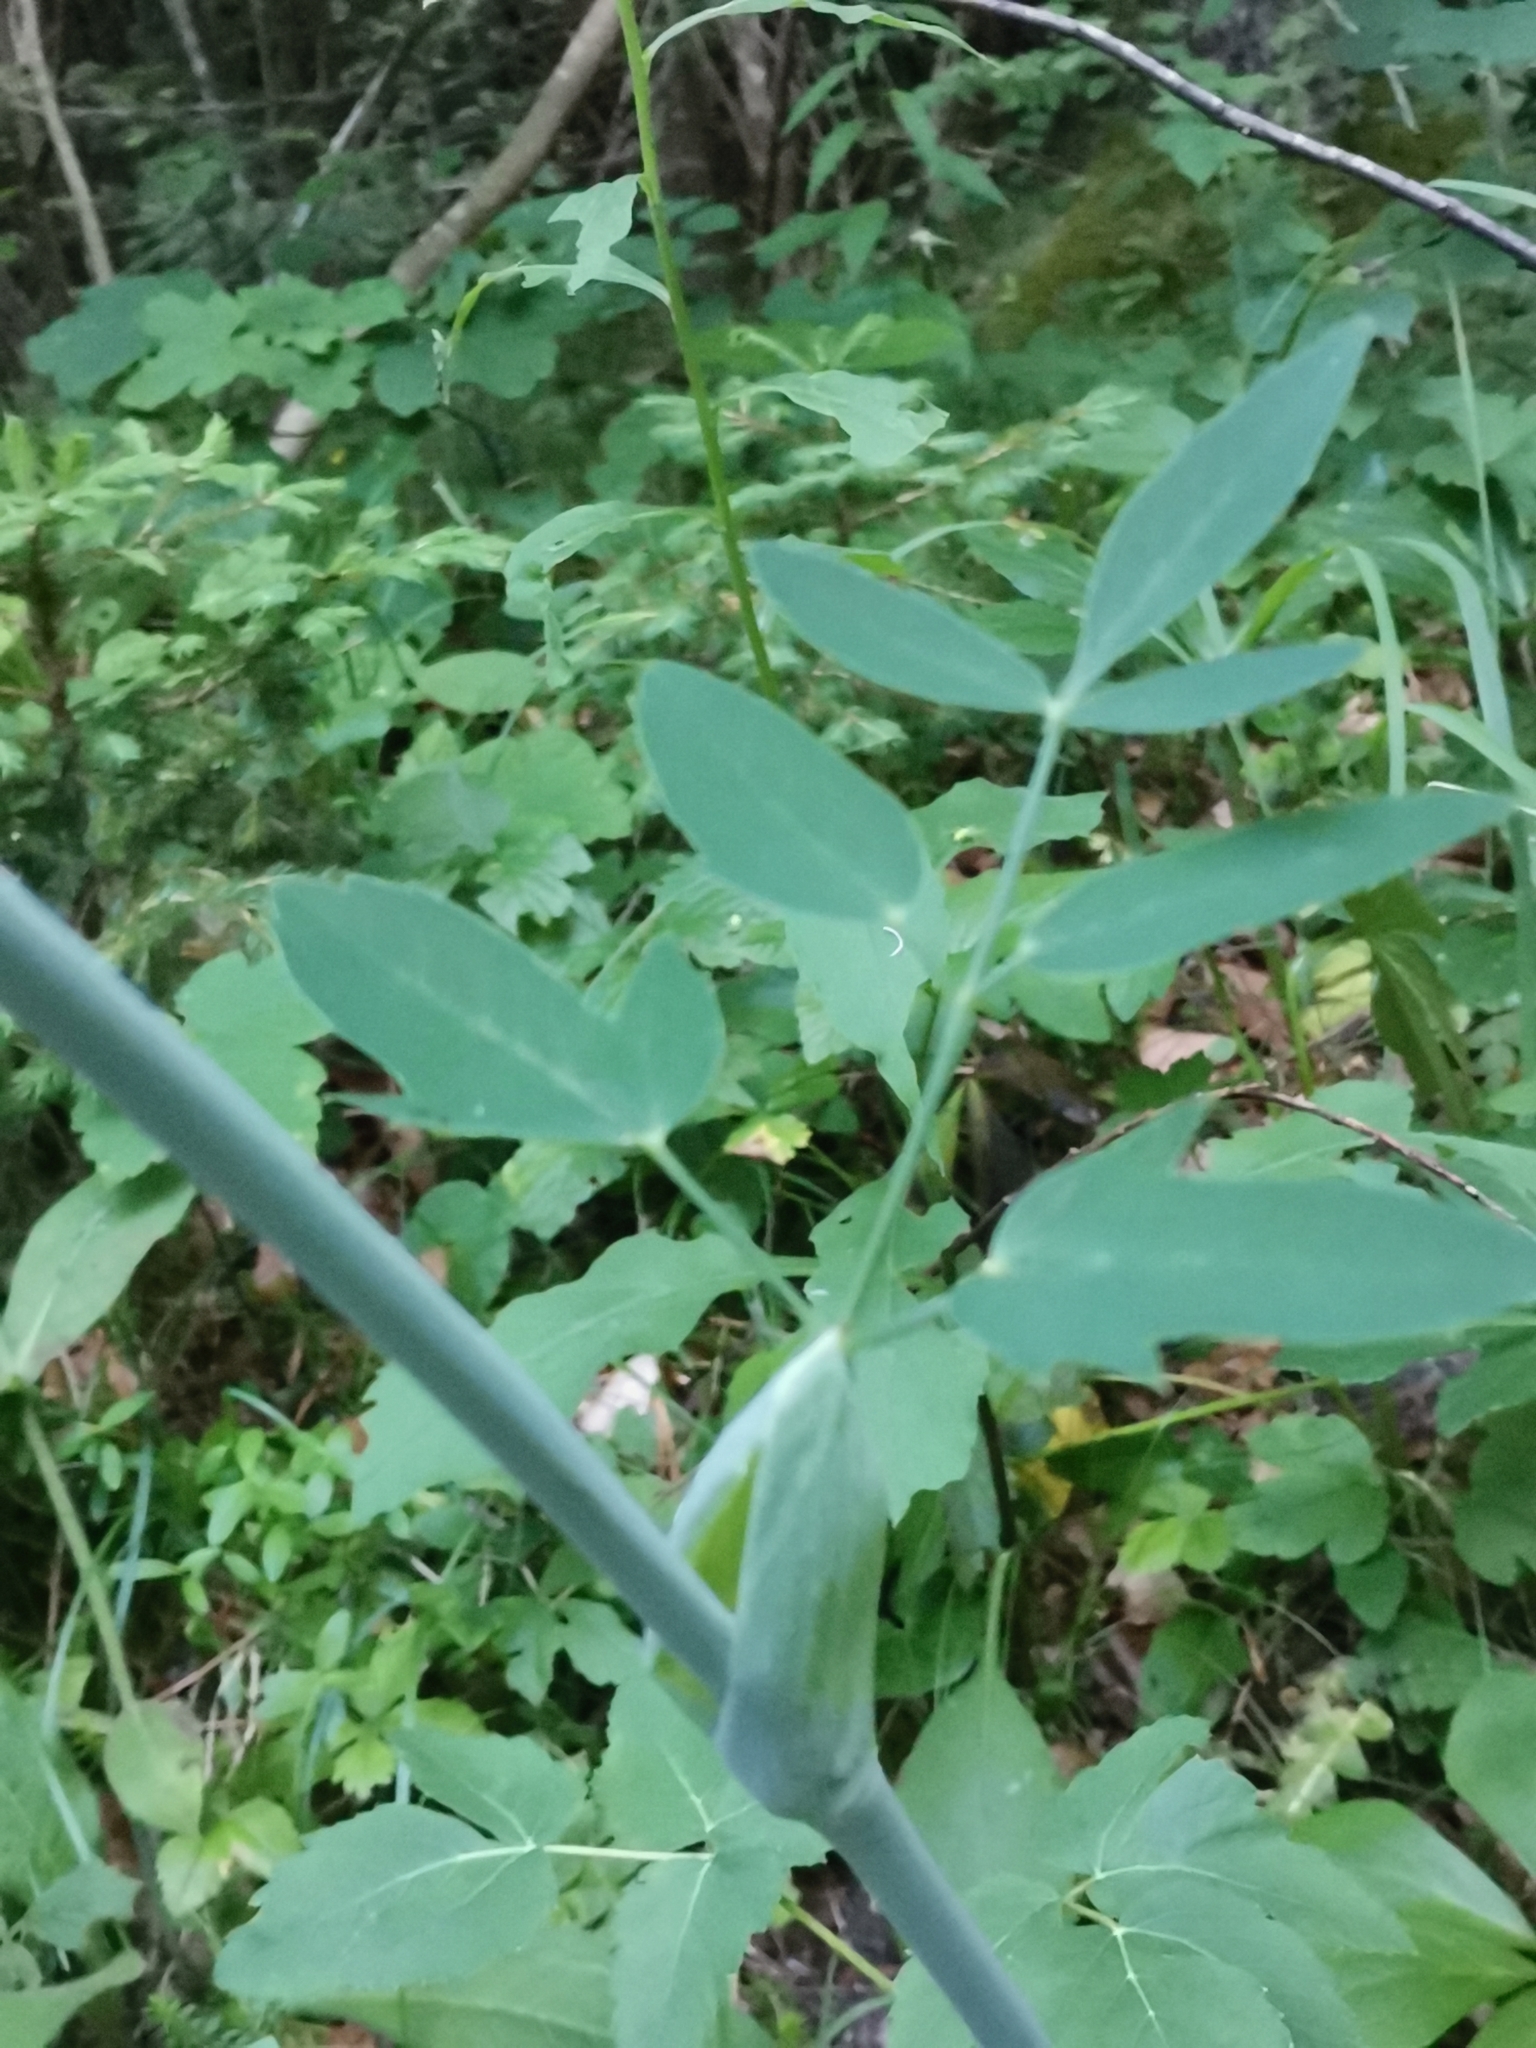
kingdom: Plantae
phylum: Tracheophyta
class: Magnoliopsida
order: Apiales
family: Apiaceae
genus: Laserpitium
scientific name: Laserpitium latifolium
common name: Broadleaf sermountain
